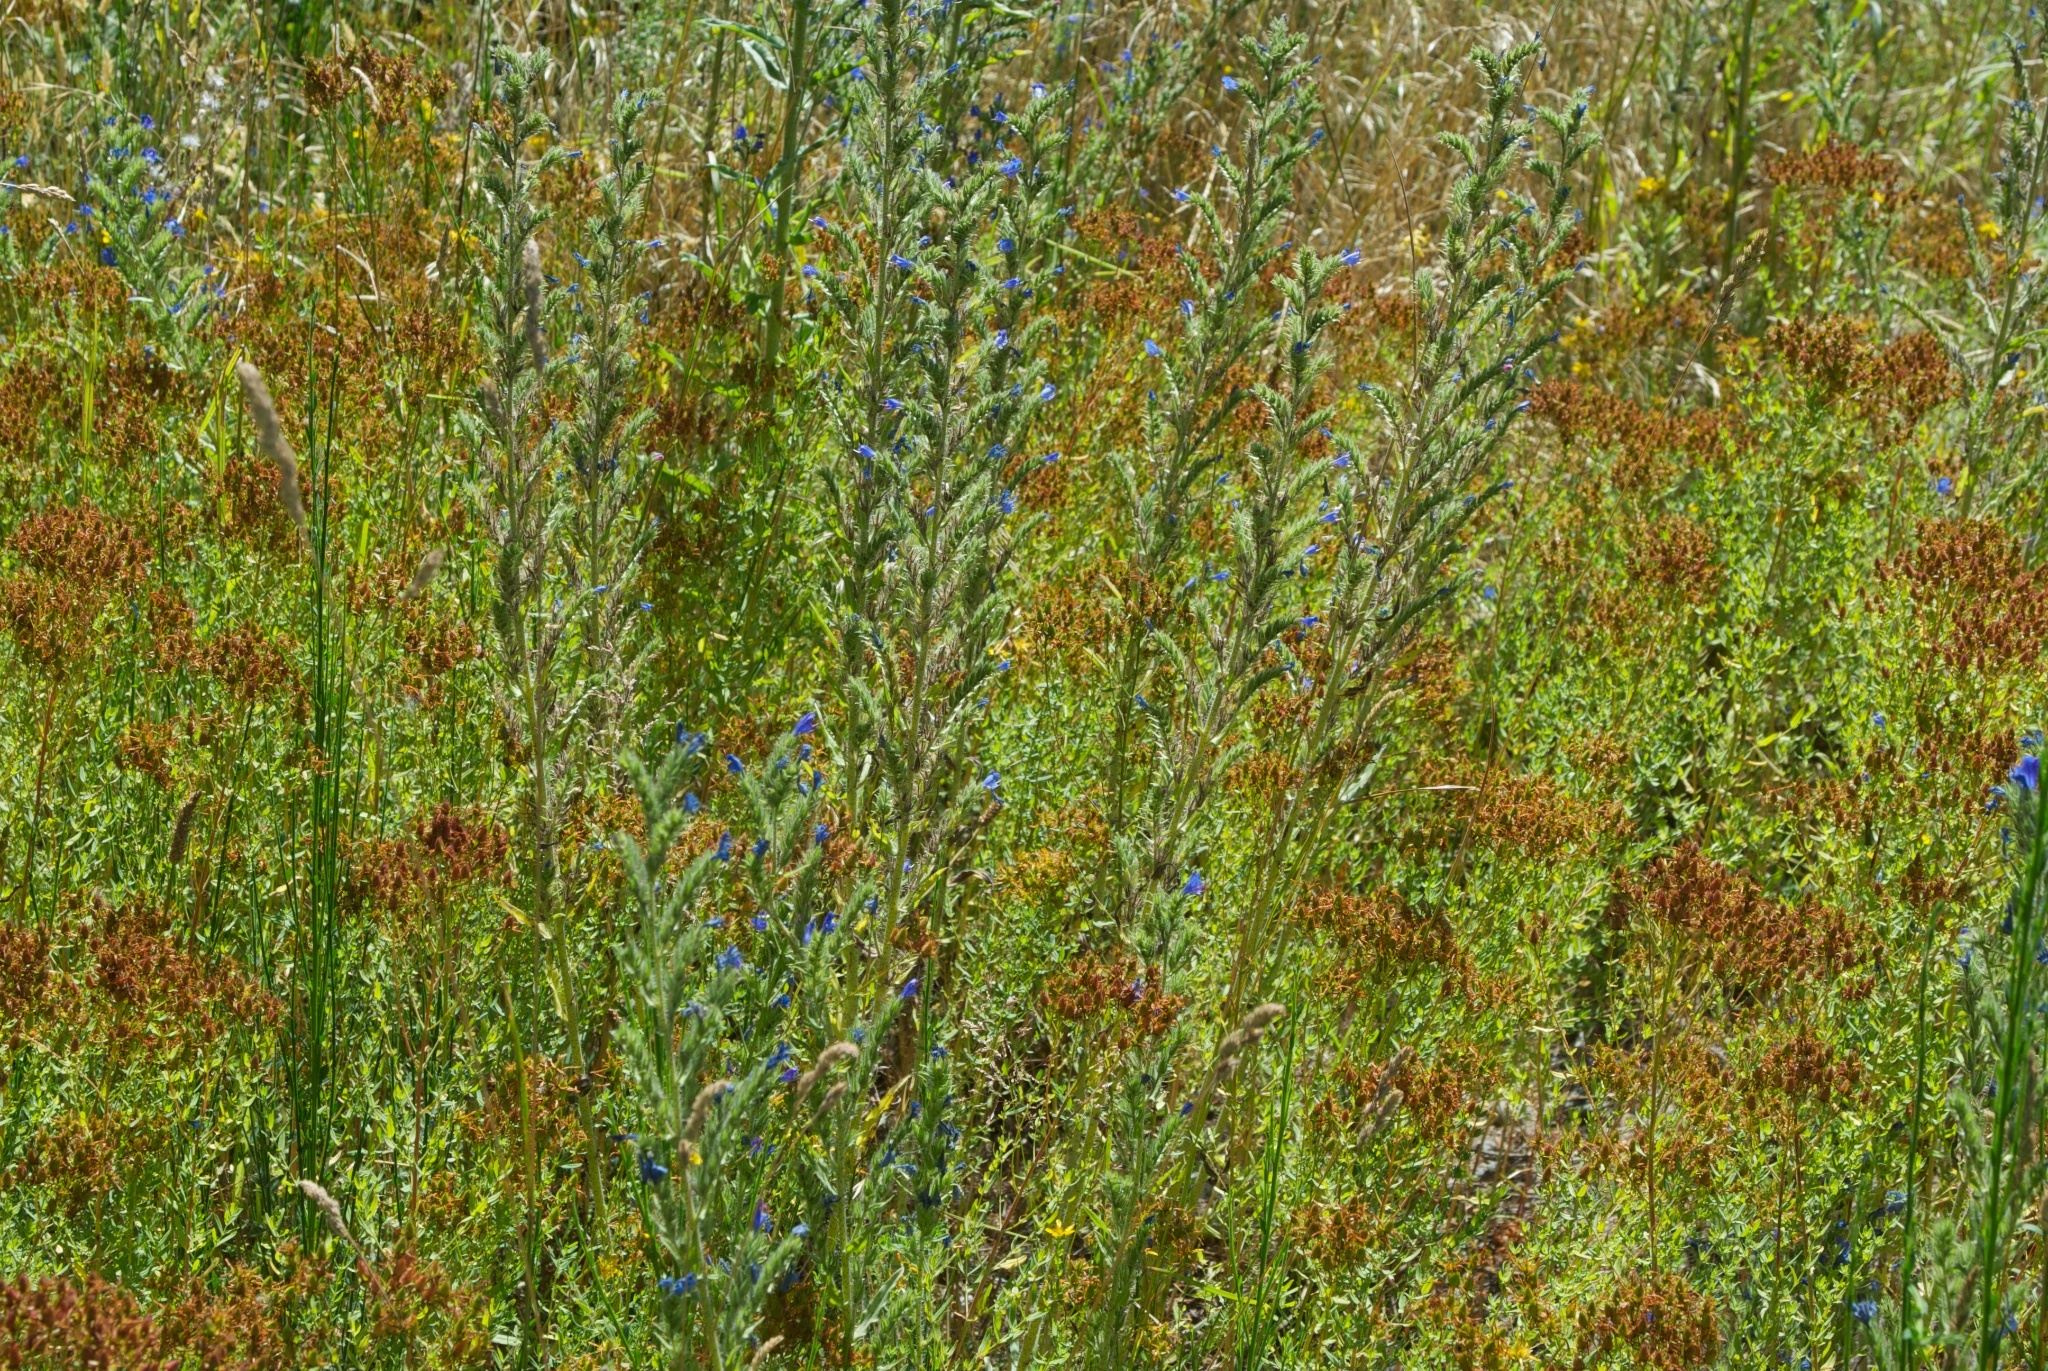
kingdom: Plantae
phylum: Tracheophyta
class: Magnoliopsida
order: Fabales
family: Fabaceae
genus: Cytisus
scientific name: Cytisus scoparius
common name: Scotch broom
